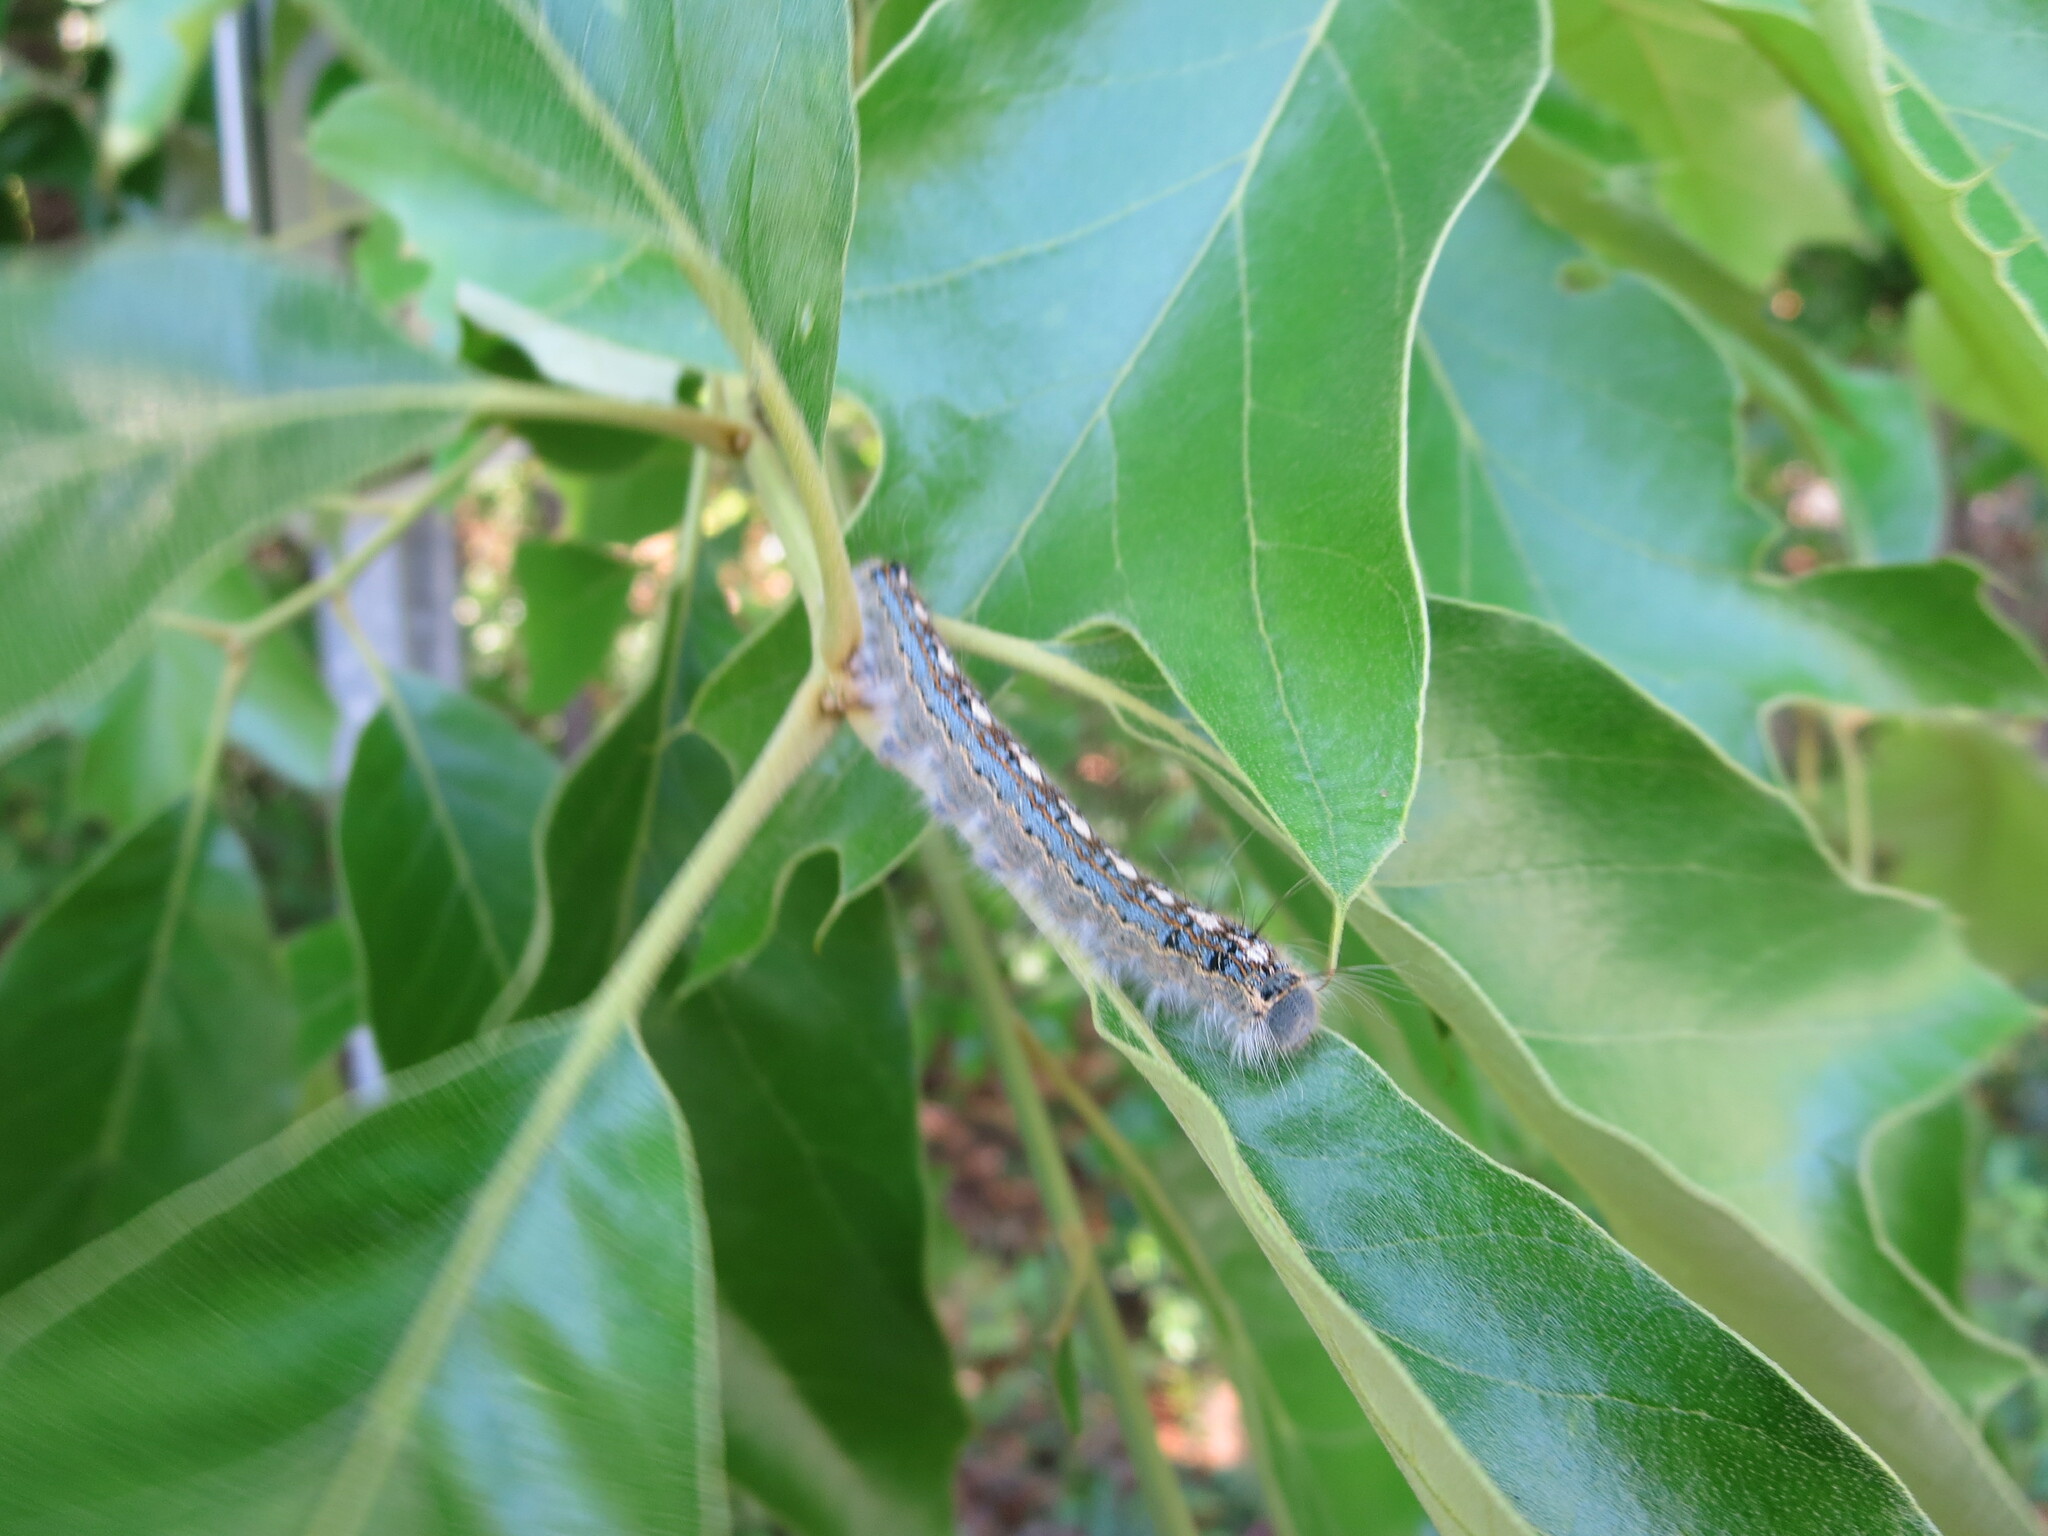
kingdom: Animalia
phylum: Arthropoda
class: Insecta
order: Lepidoptera
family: Lasiocampidae
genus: Malacosoma
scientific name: Malacosoma disstria
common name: Forest tent caterpillar
